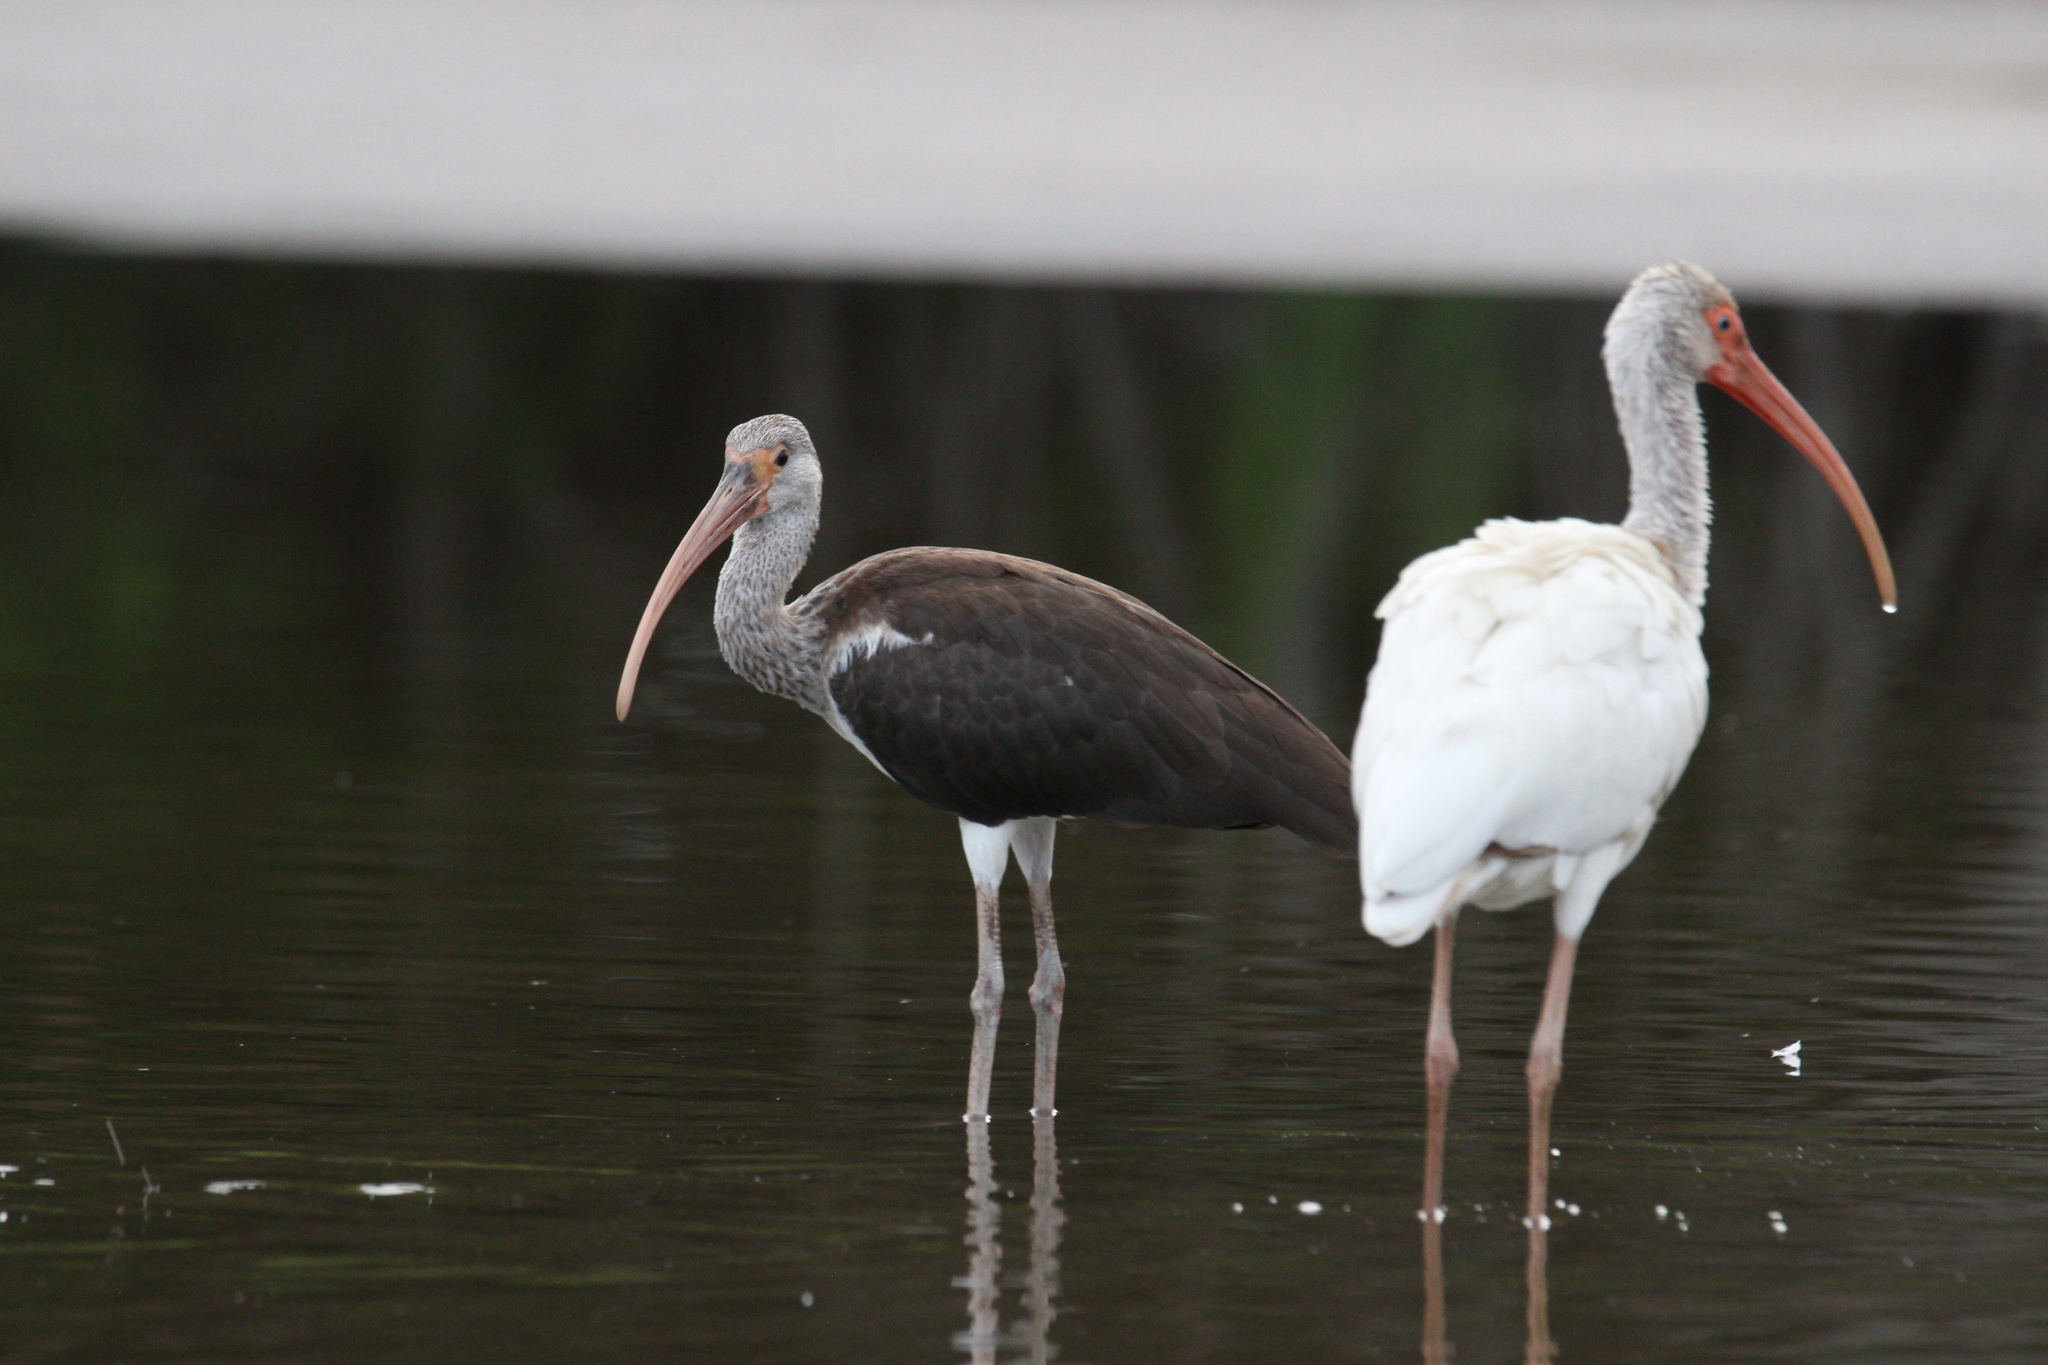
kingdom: Animalia
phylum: Chordata
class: Aves
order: Pelecaniformes
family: Threskiornithidae
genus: Eudocimus
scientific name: Eudocimus albus
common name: White ibis
